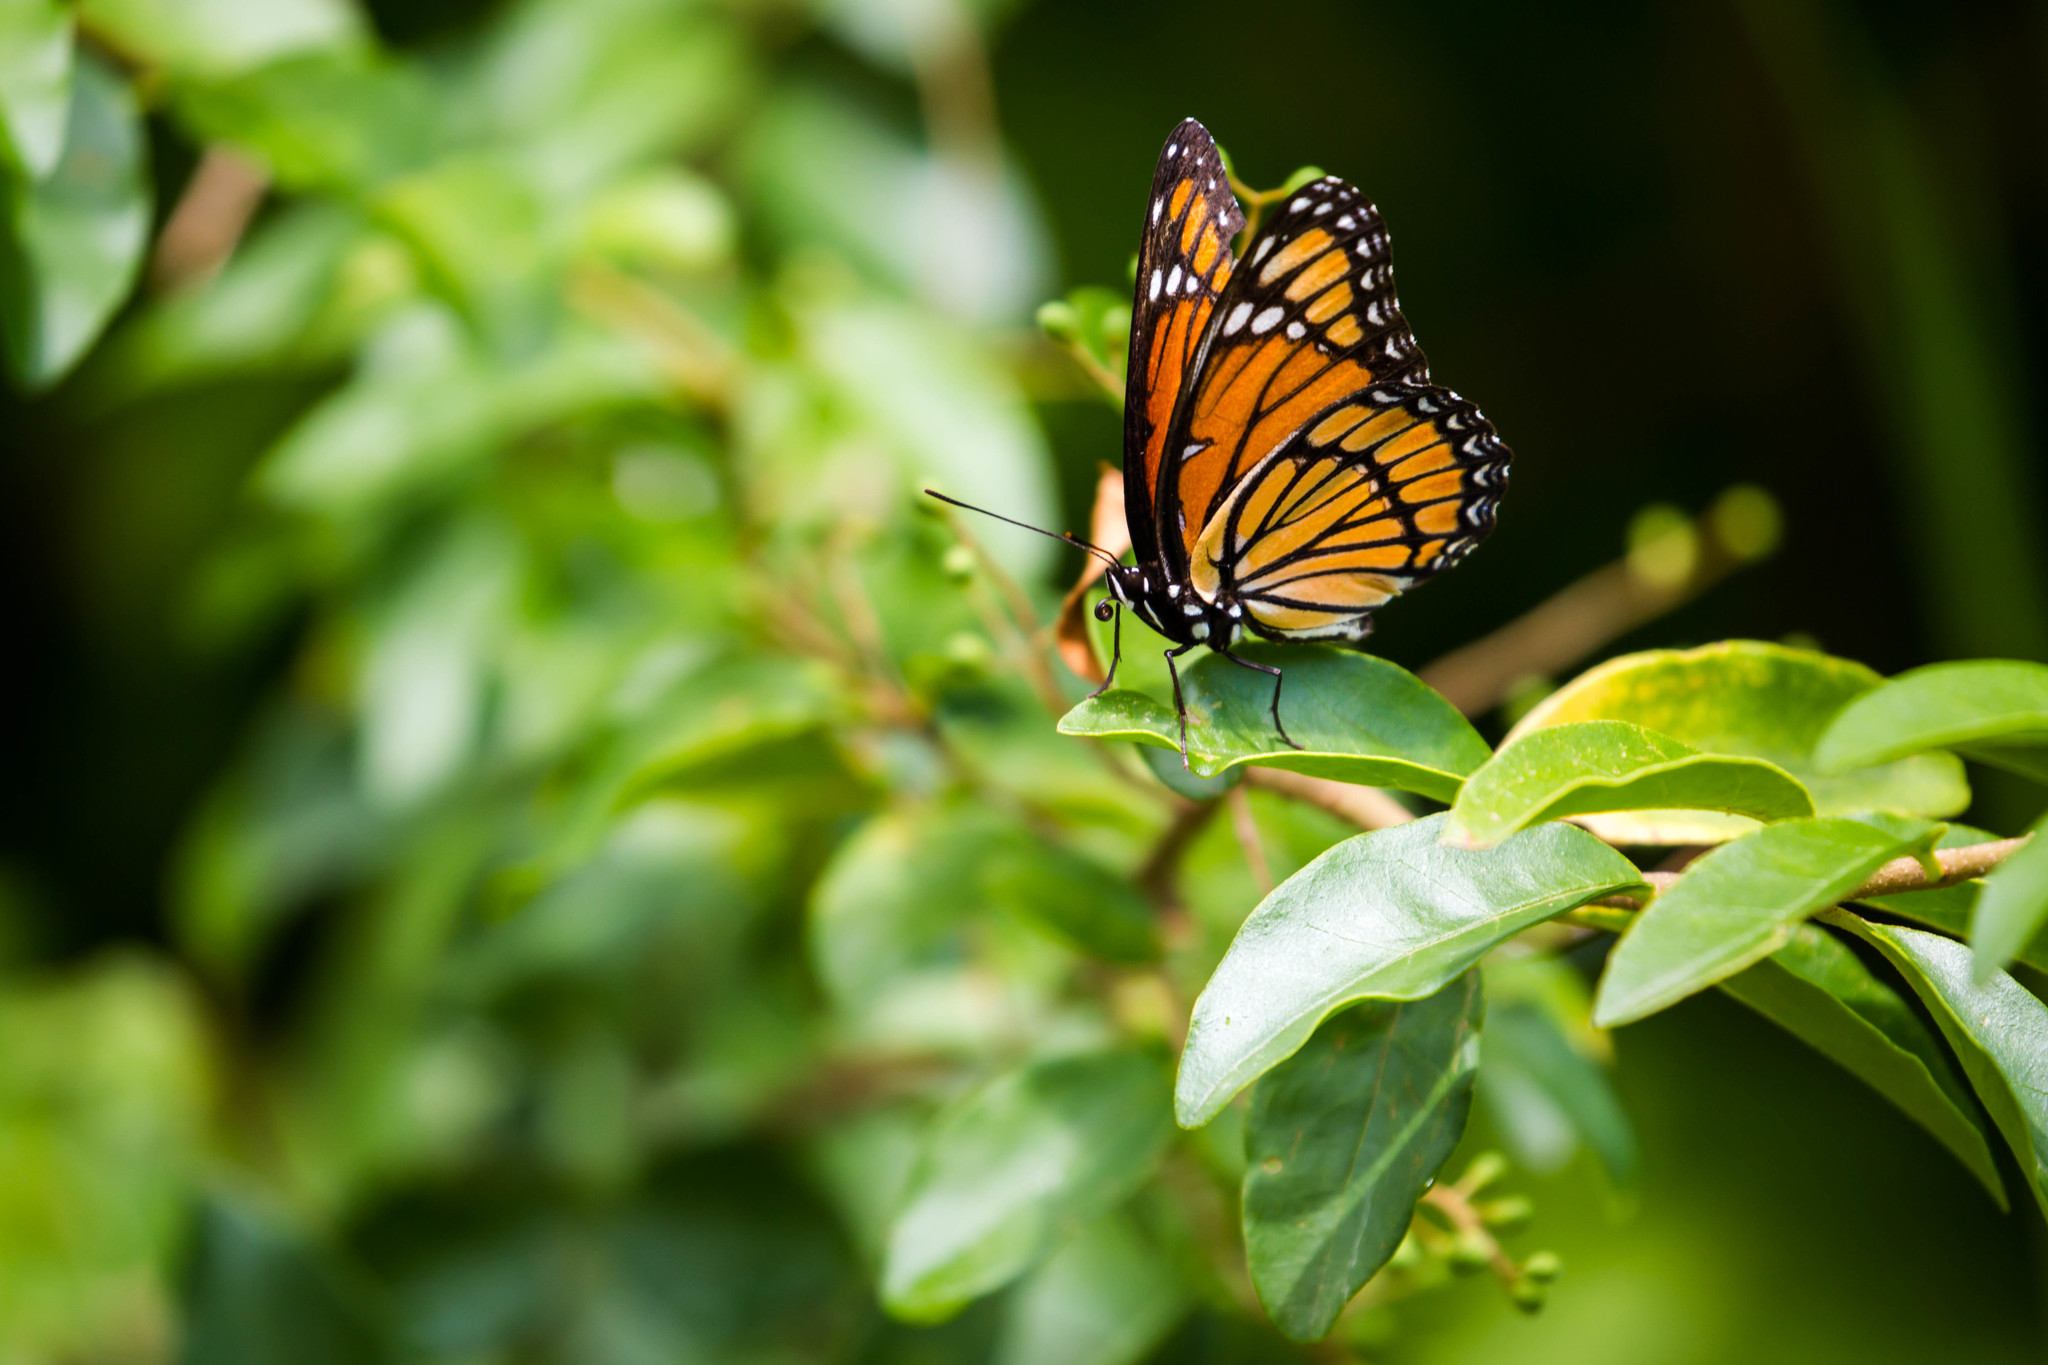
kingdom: Animalia
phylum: Arthropoda
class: Insecta
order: Lepidoptera
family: Nymphalidae
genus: Limenitis
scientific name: Limenitis archippus
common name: Viceroy
